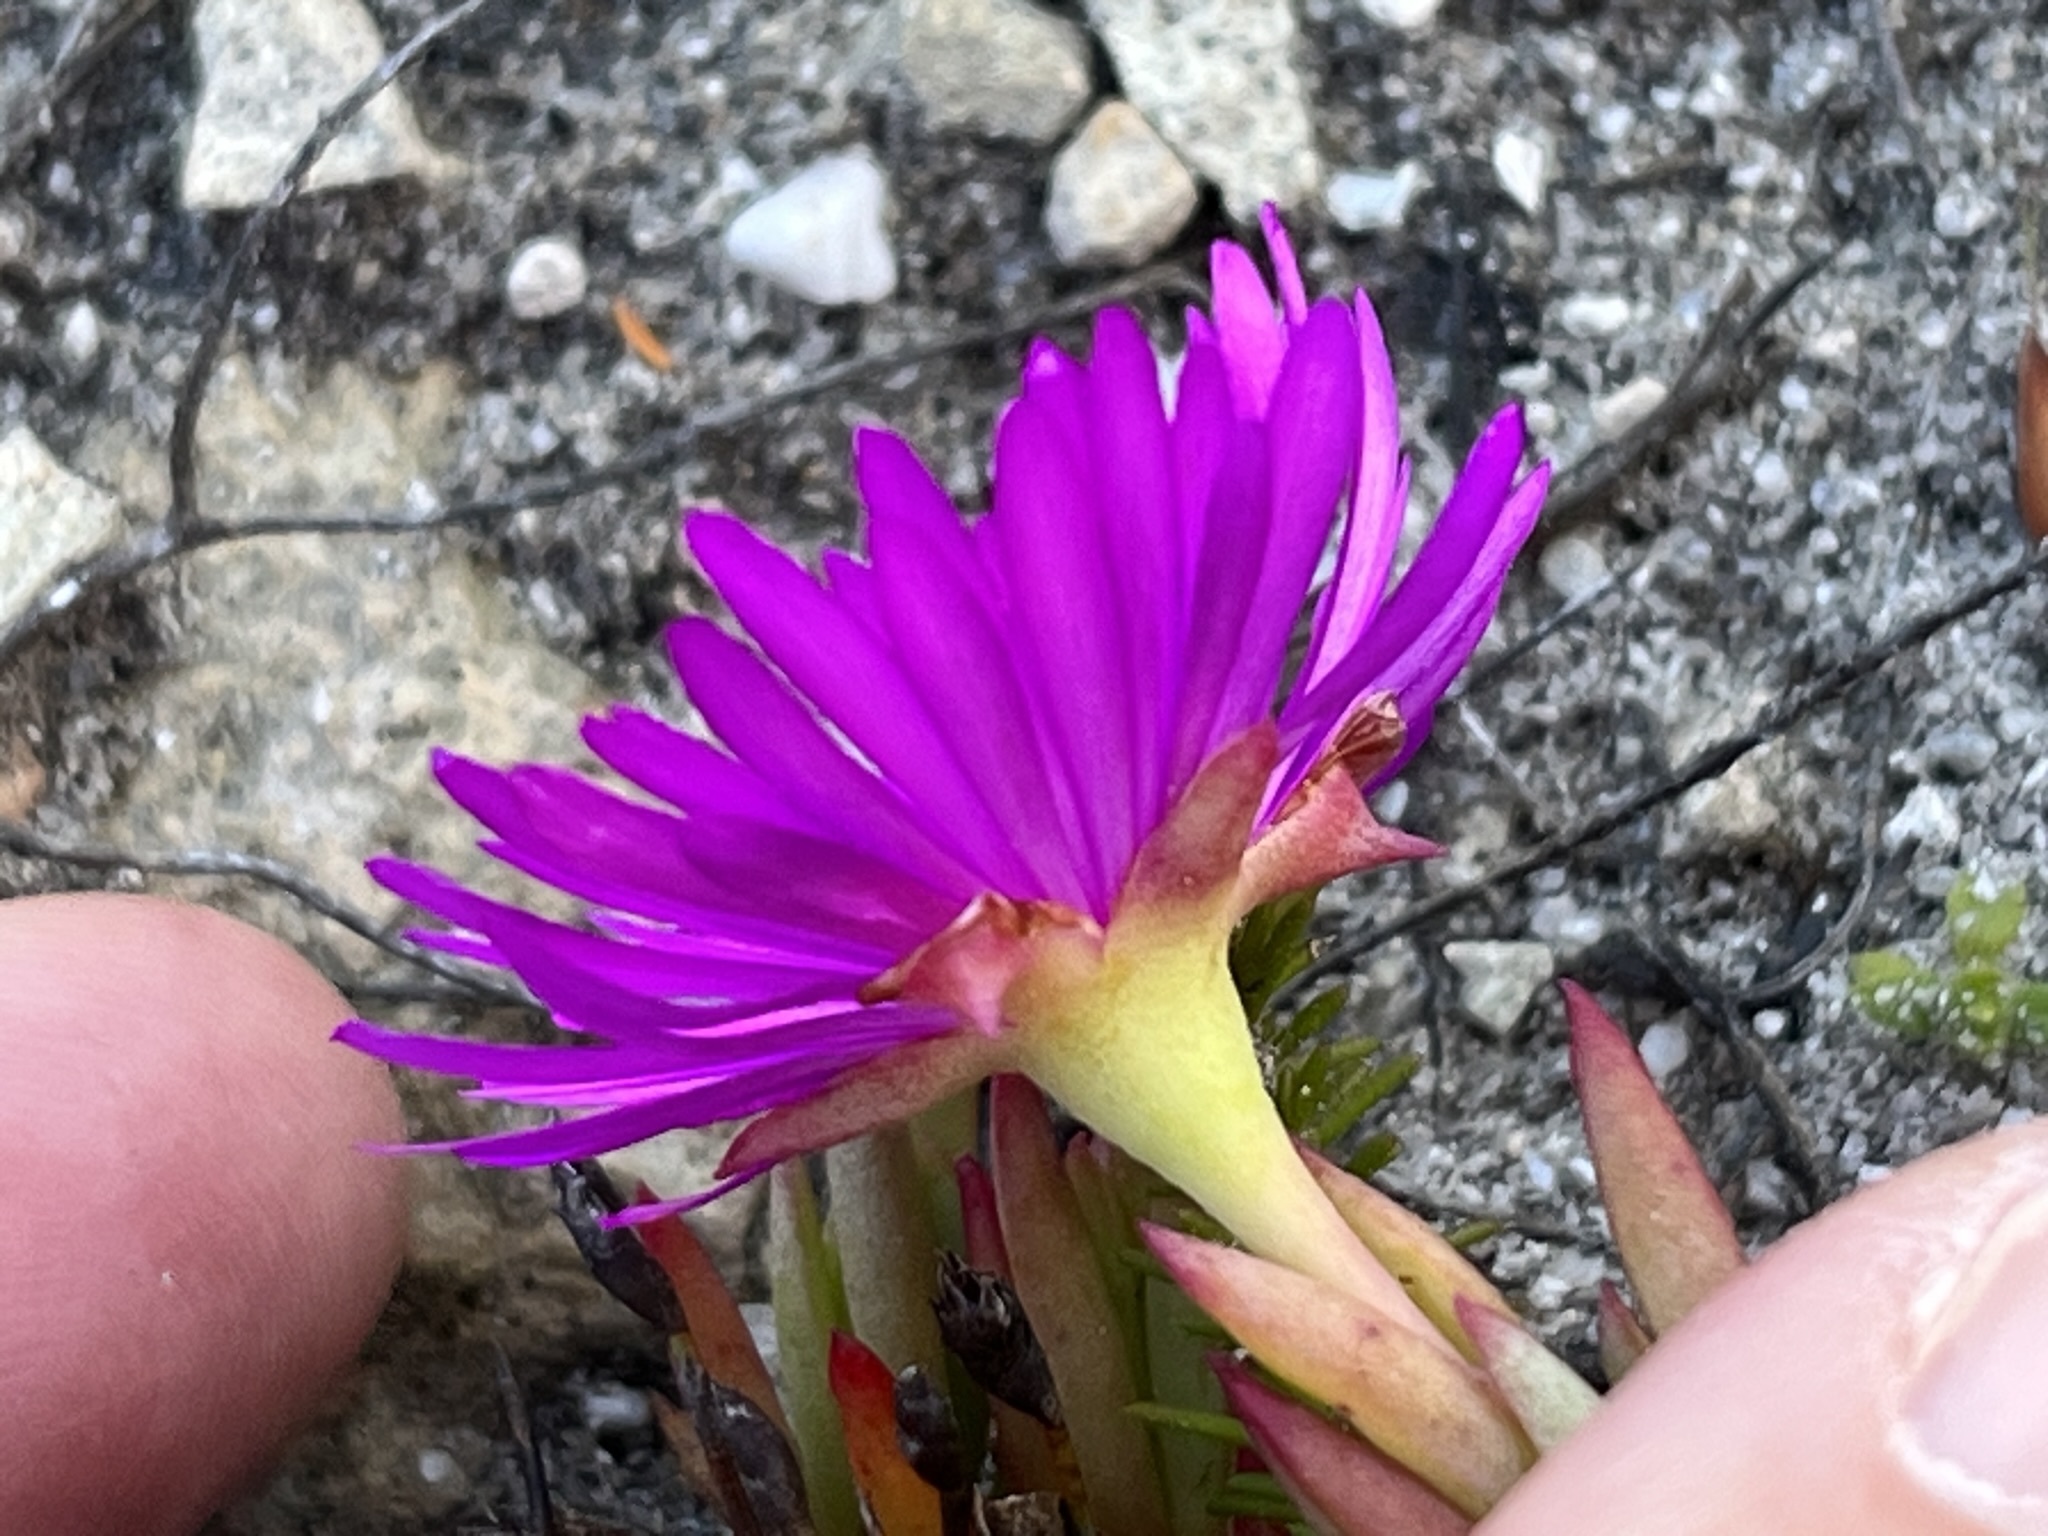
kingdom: Plantae
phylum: Tracheophyta
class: Magnoliopsida
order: Caryophyllales
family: Aizoaceae
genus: Lampranthus
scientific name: Lampranthus ceriseus
